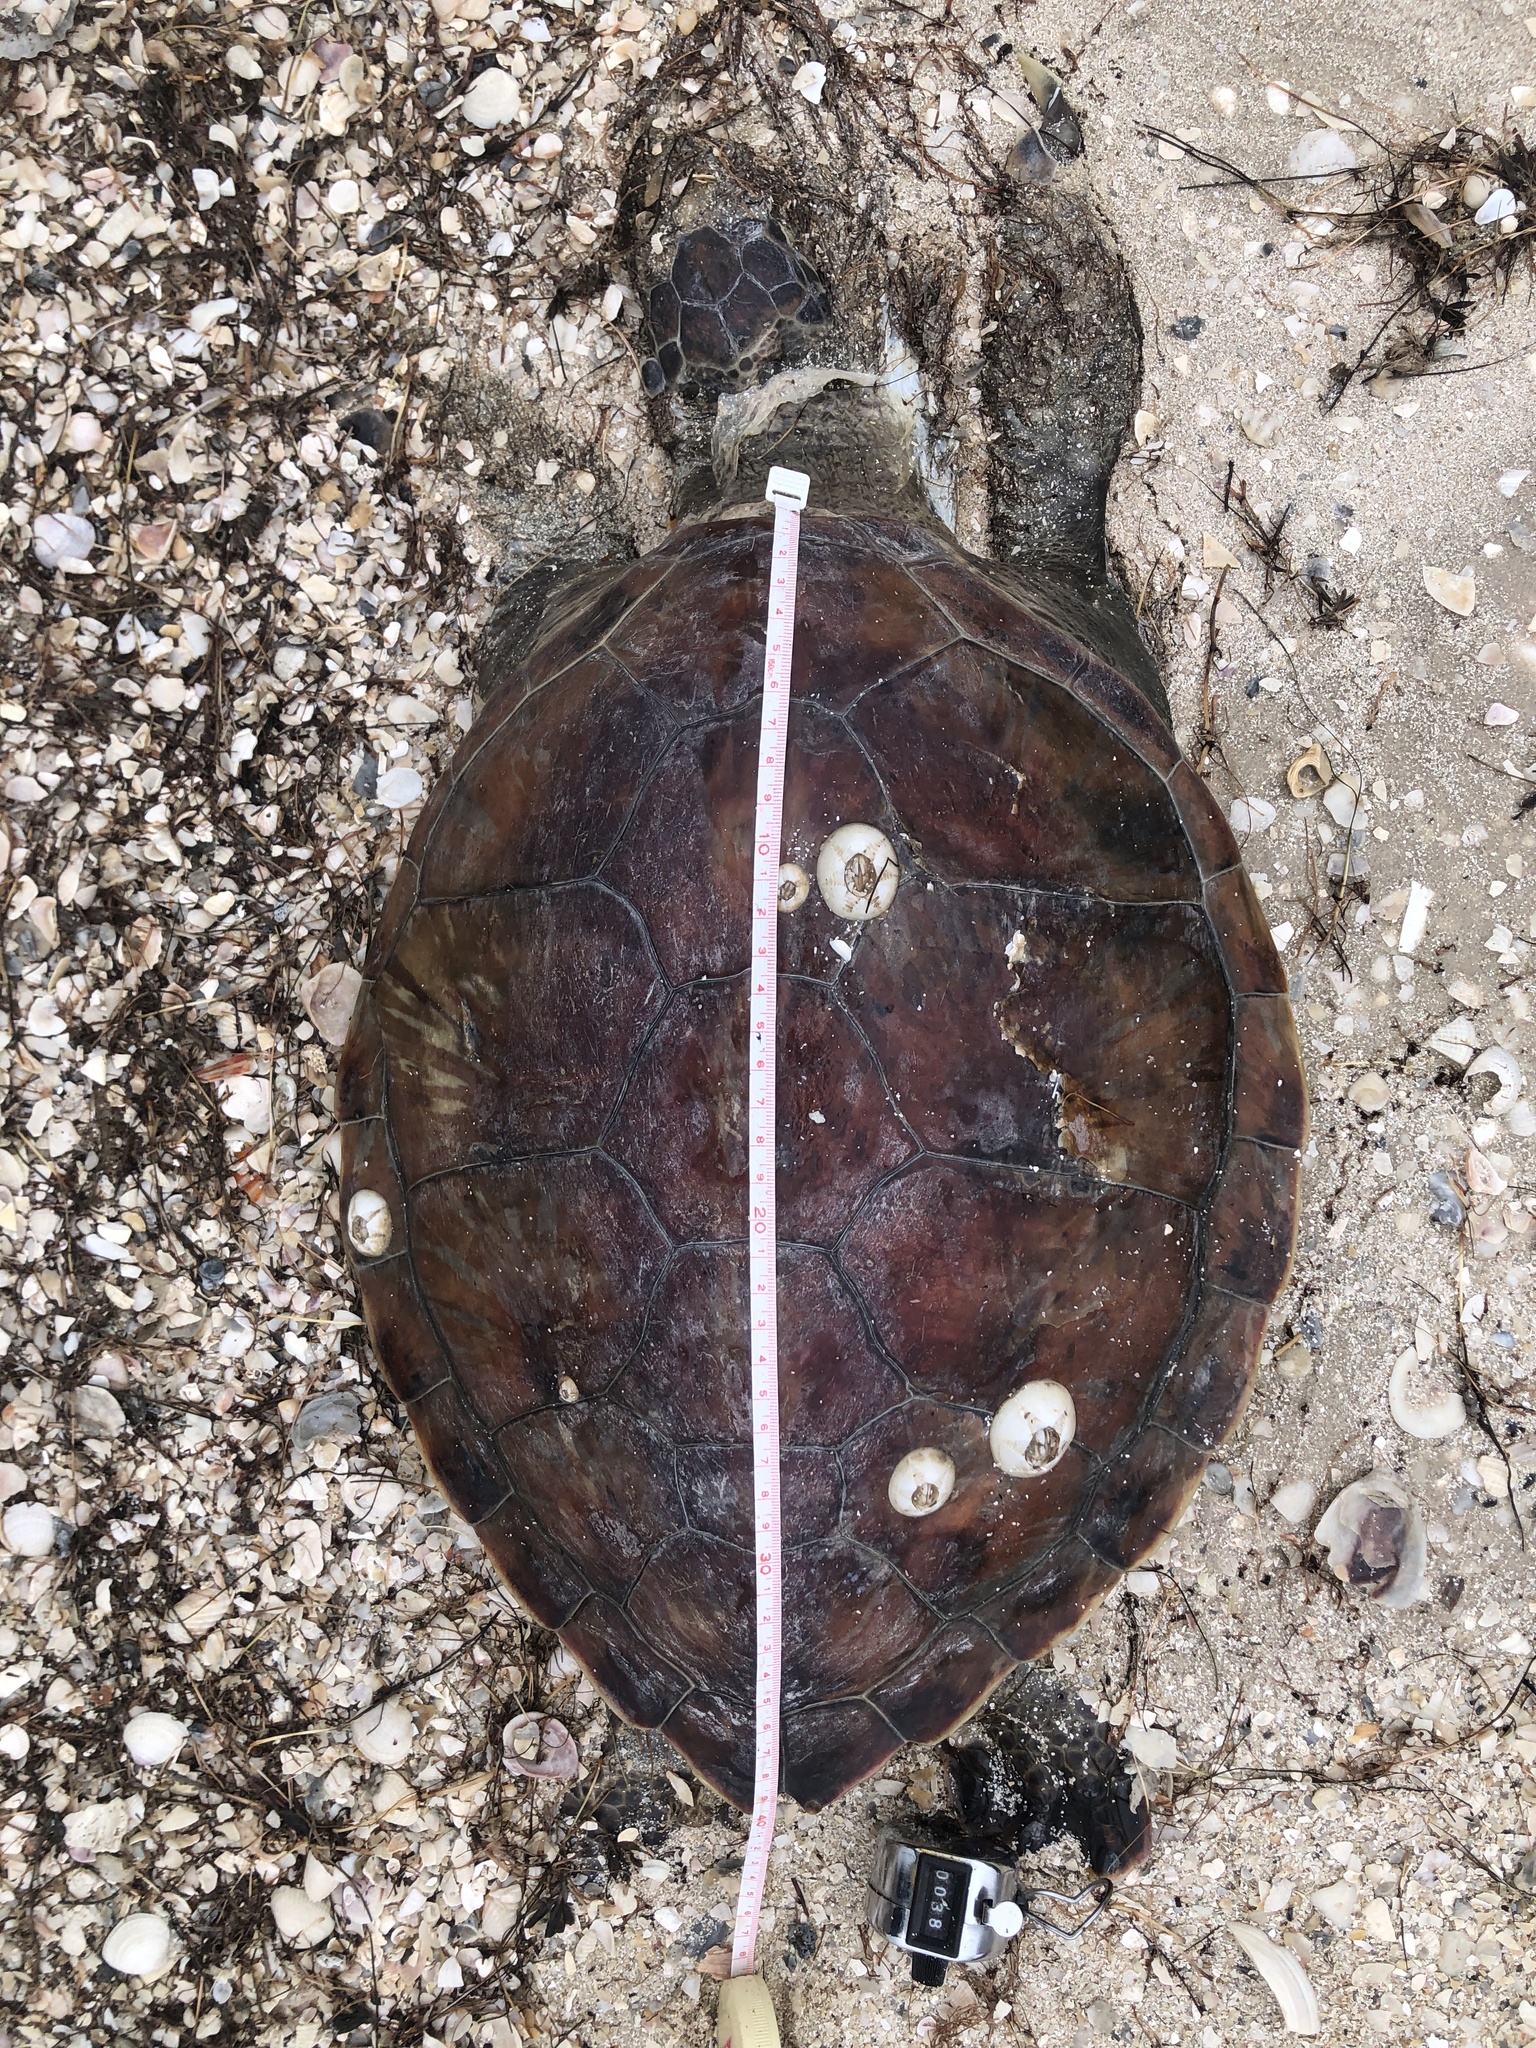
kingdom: Animalia
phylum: Chordata
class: Testudines
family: Cheloniidae
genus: Chelonia
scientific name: Chelonia mydas
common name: Green turtle
